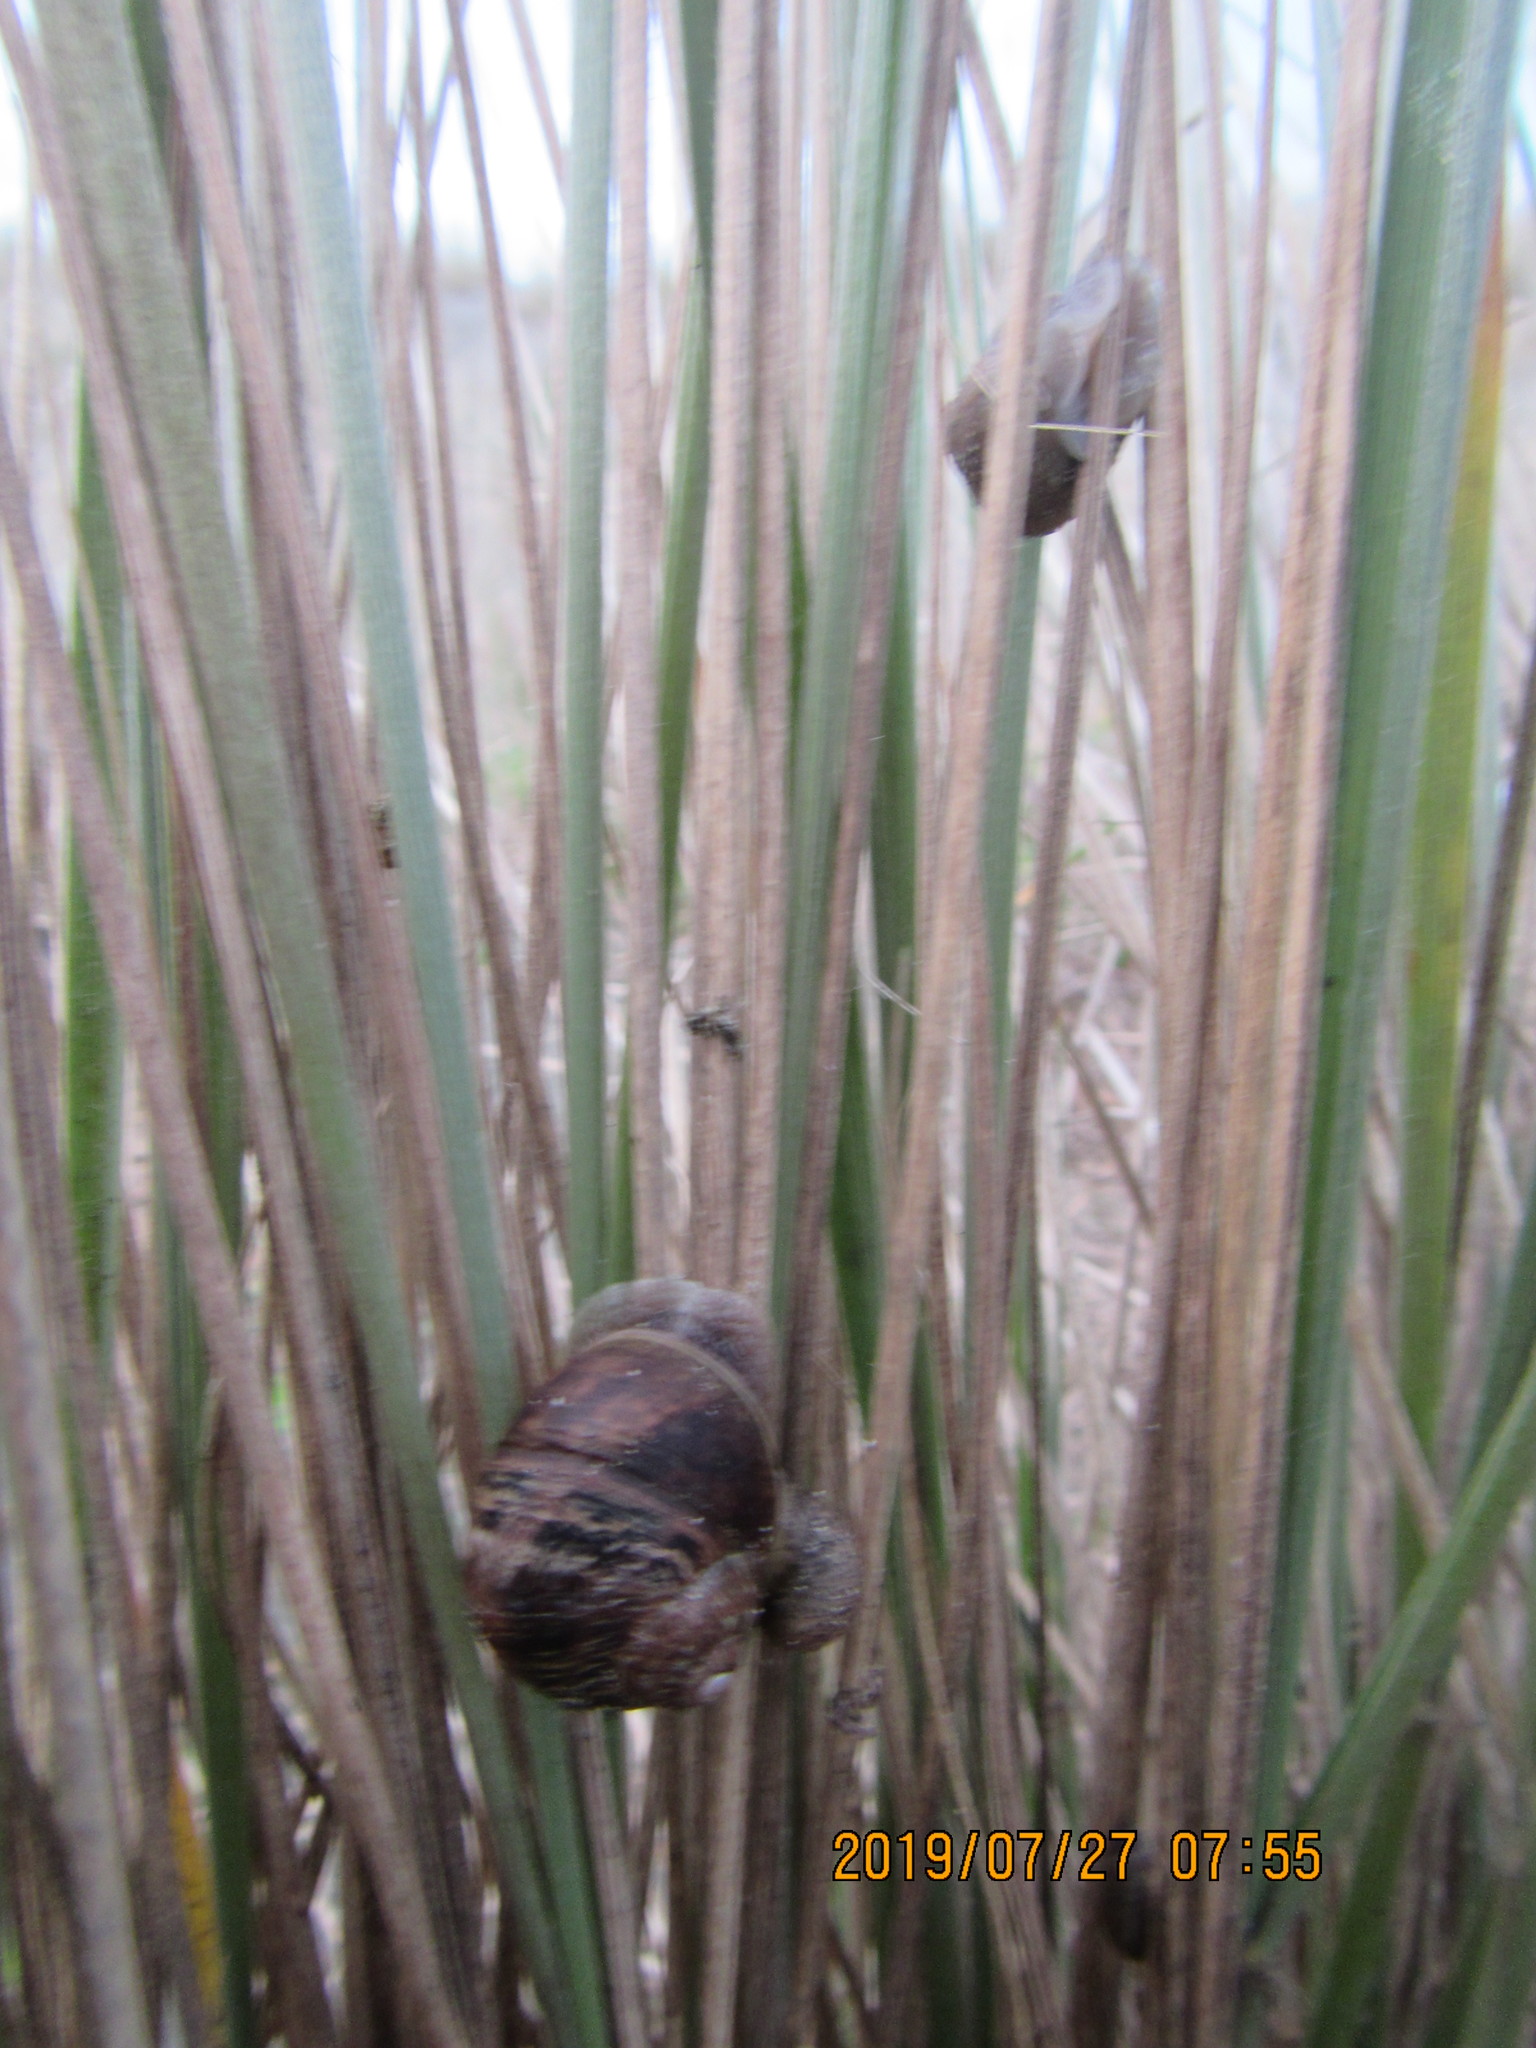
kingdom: Animalia
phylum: Mollusca
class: Gastropoda
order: Stylommatophora
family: Helicidae
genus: Cornu
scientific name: Cornu aspersum
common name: Brown garden snail
